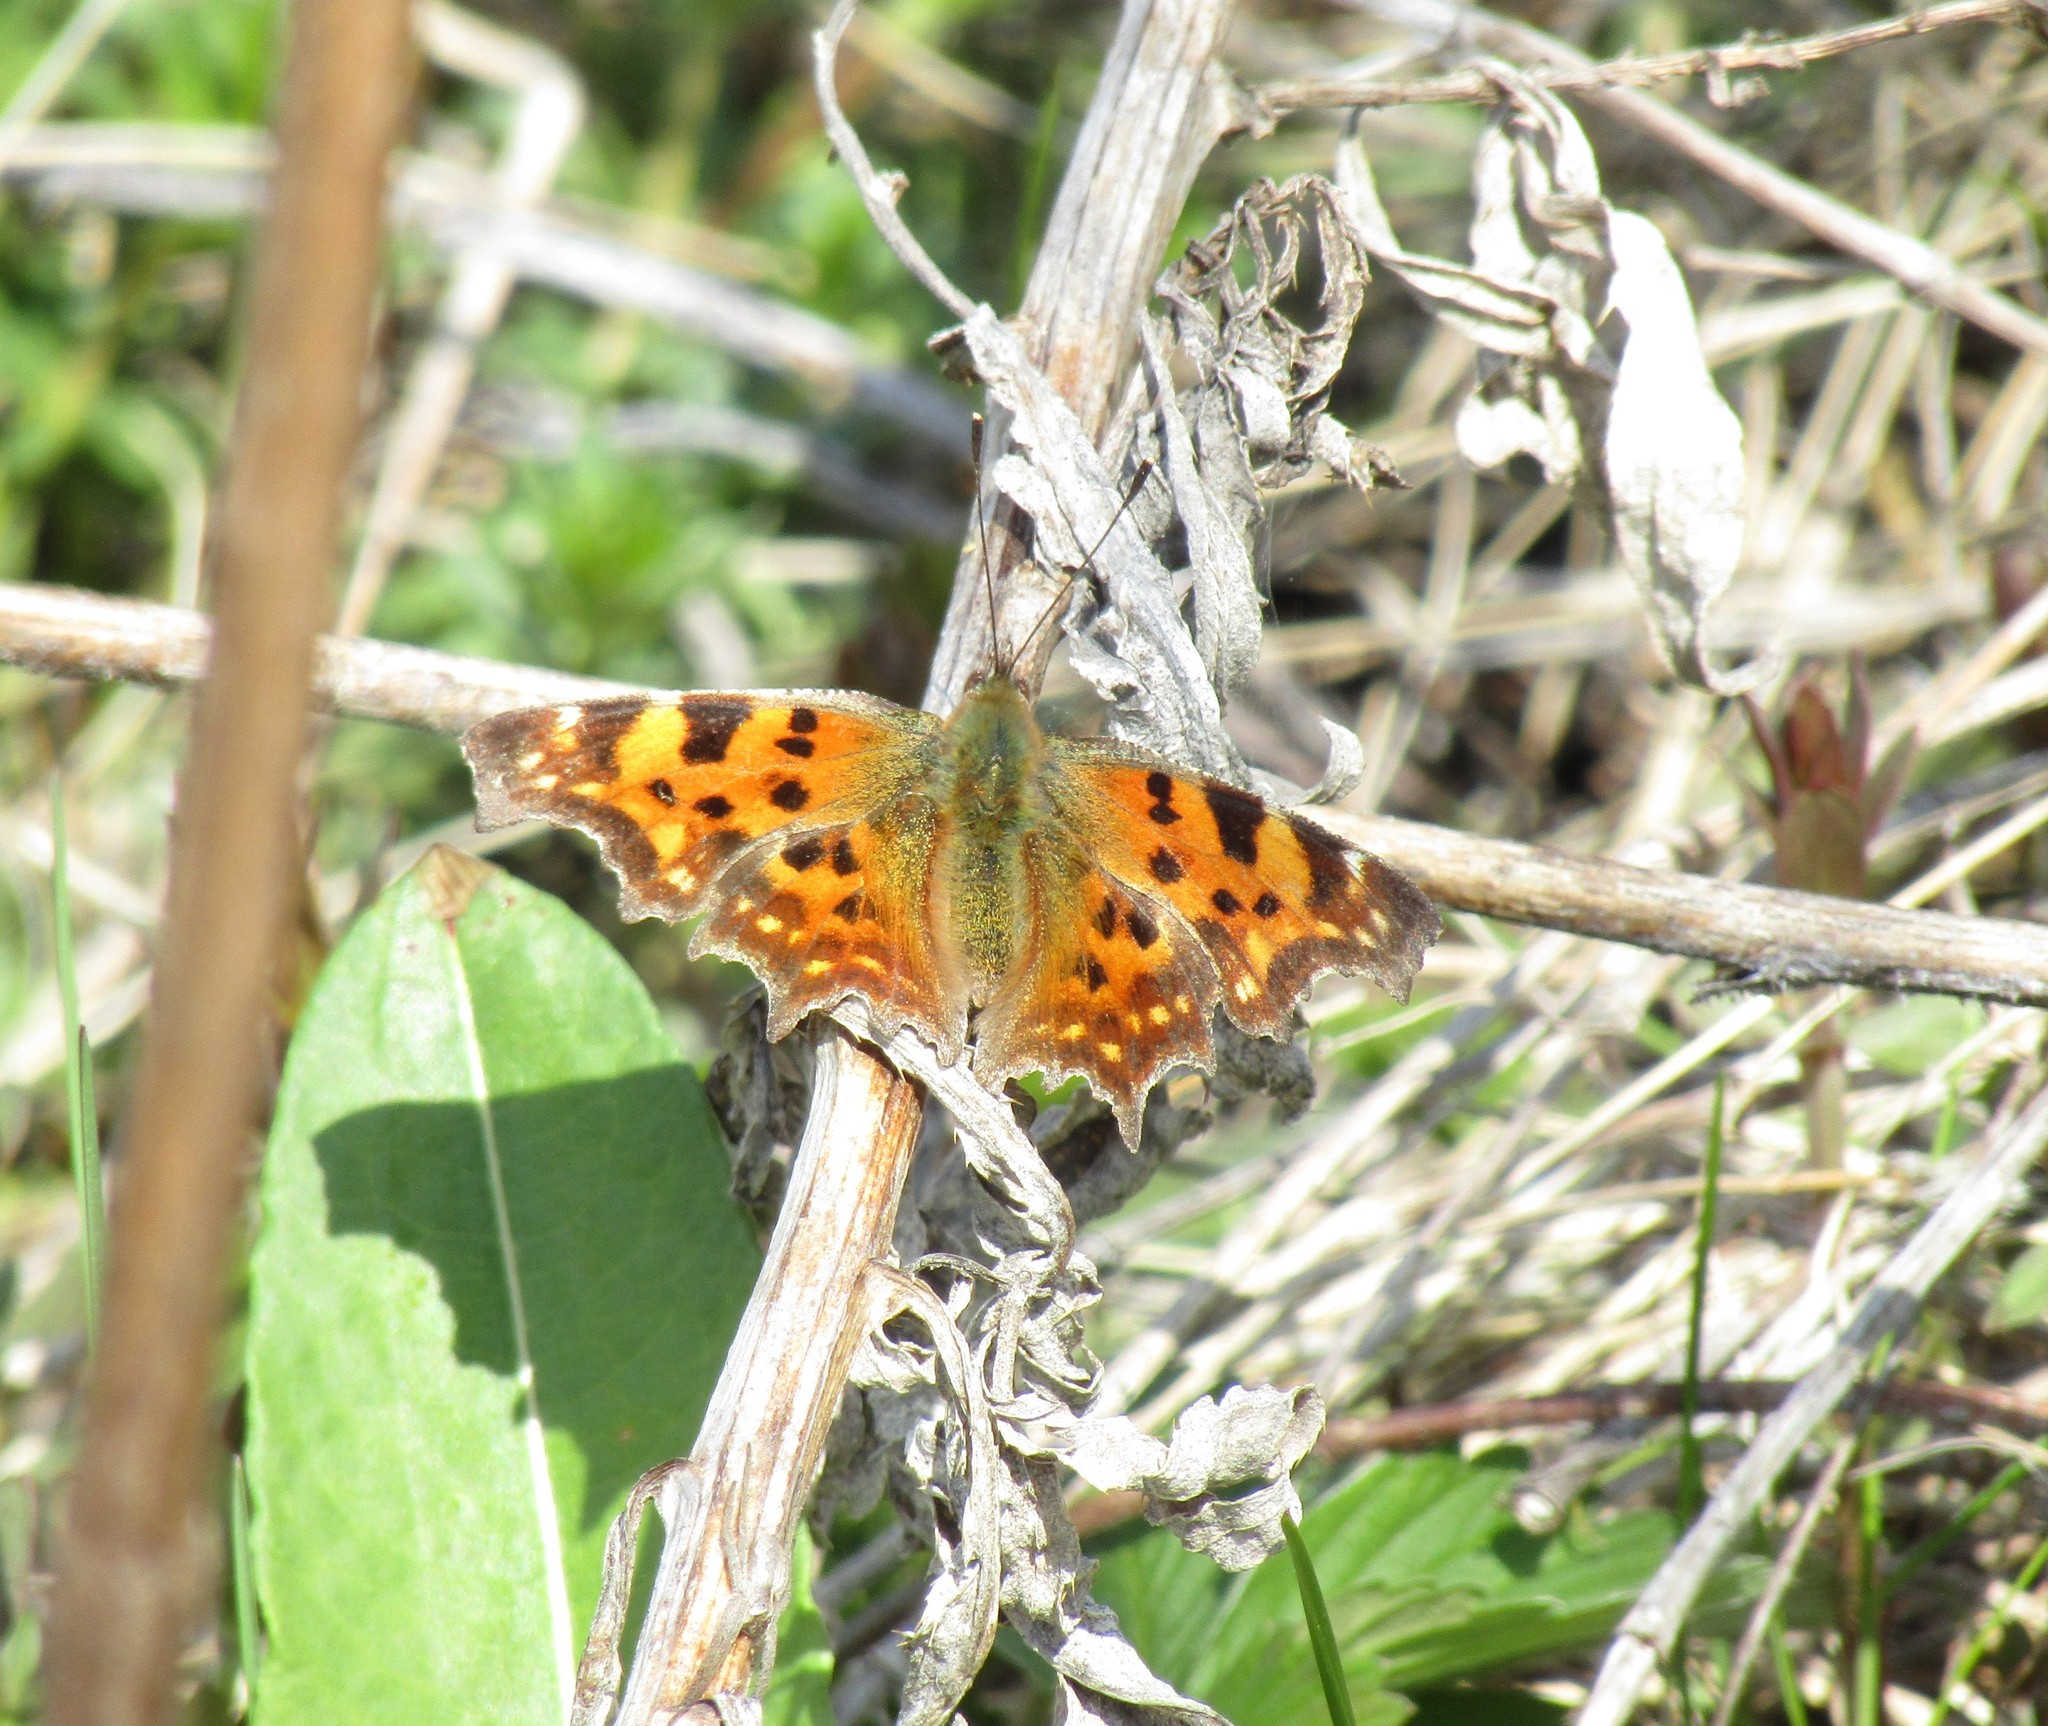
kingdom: Animalia
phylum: Arthropoda
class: Insecta
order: Lepidoptera
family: Nymphalidae
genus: Polygonia
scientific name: Polygonia c-album
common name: Comma
